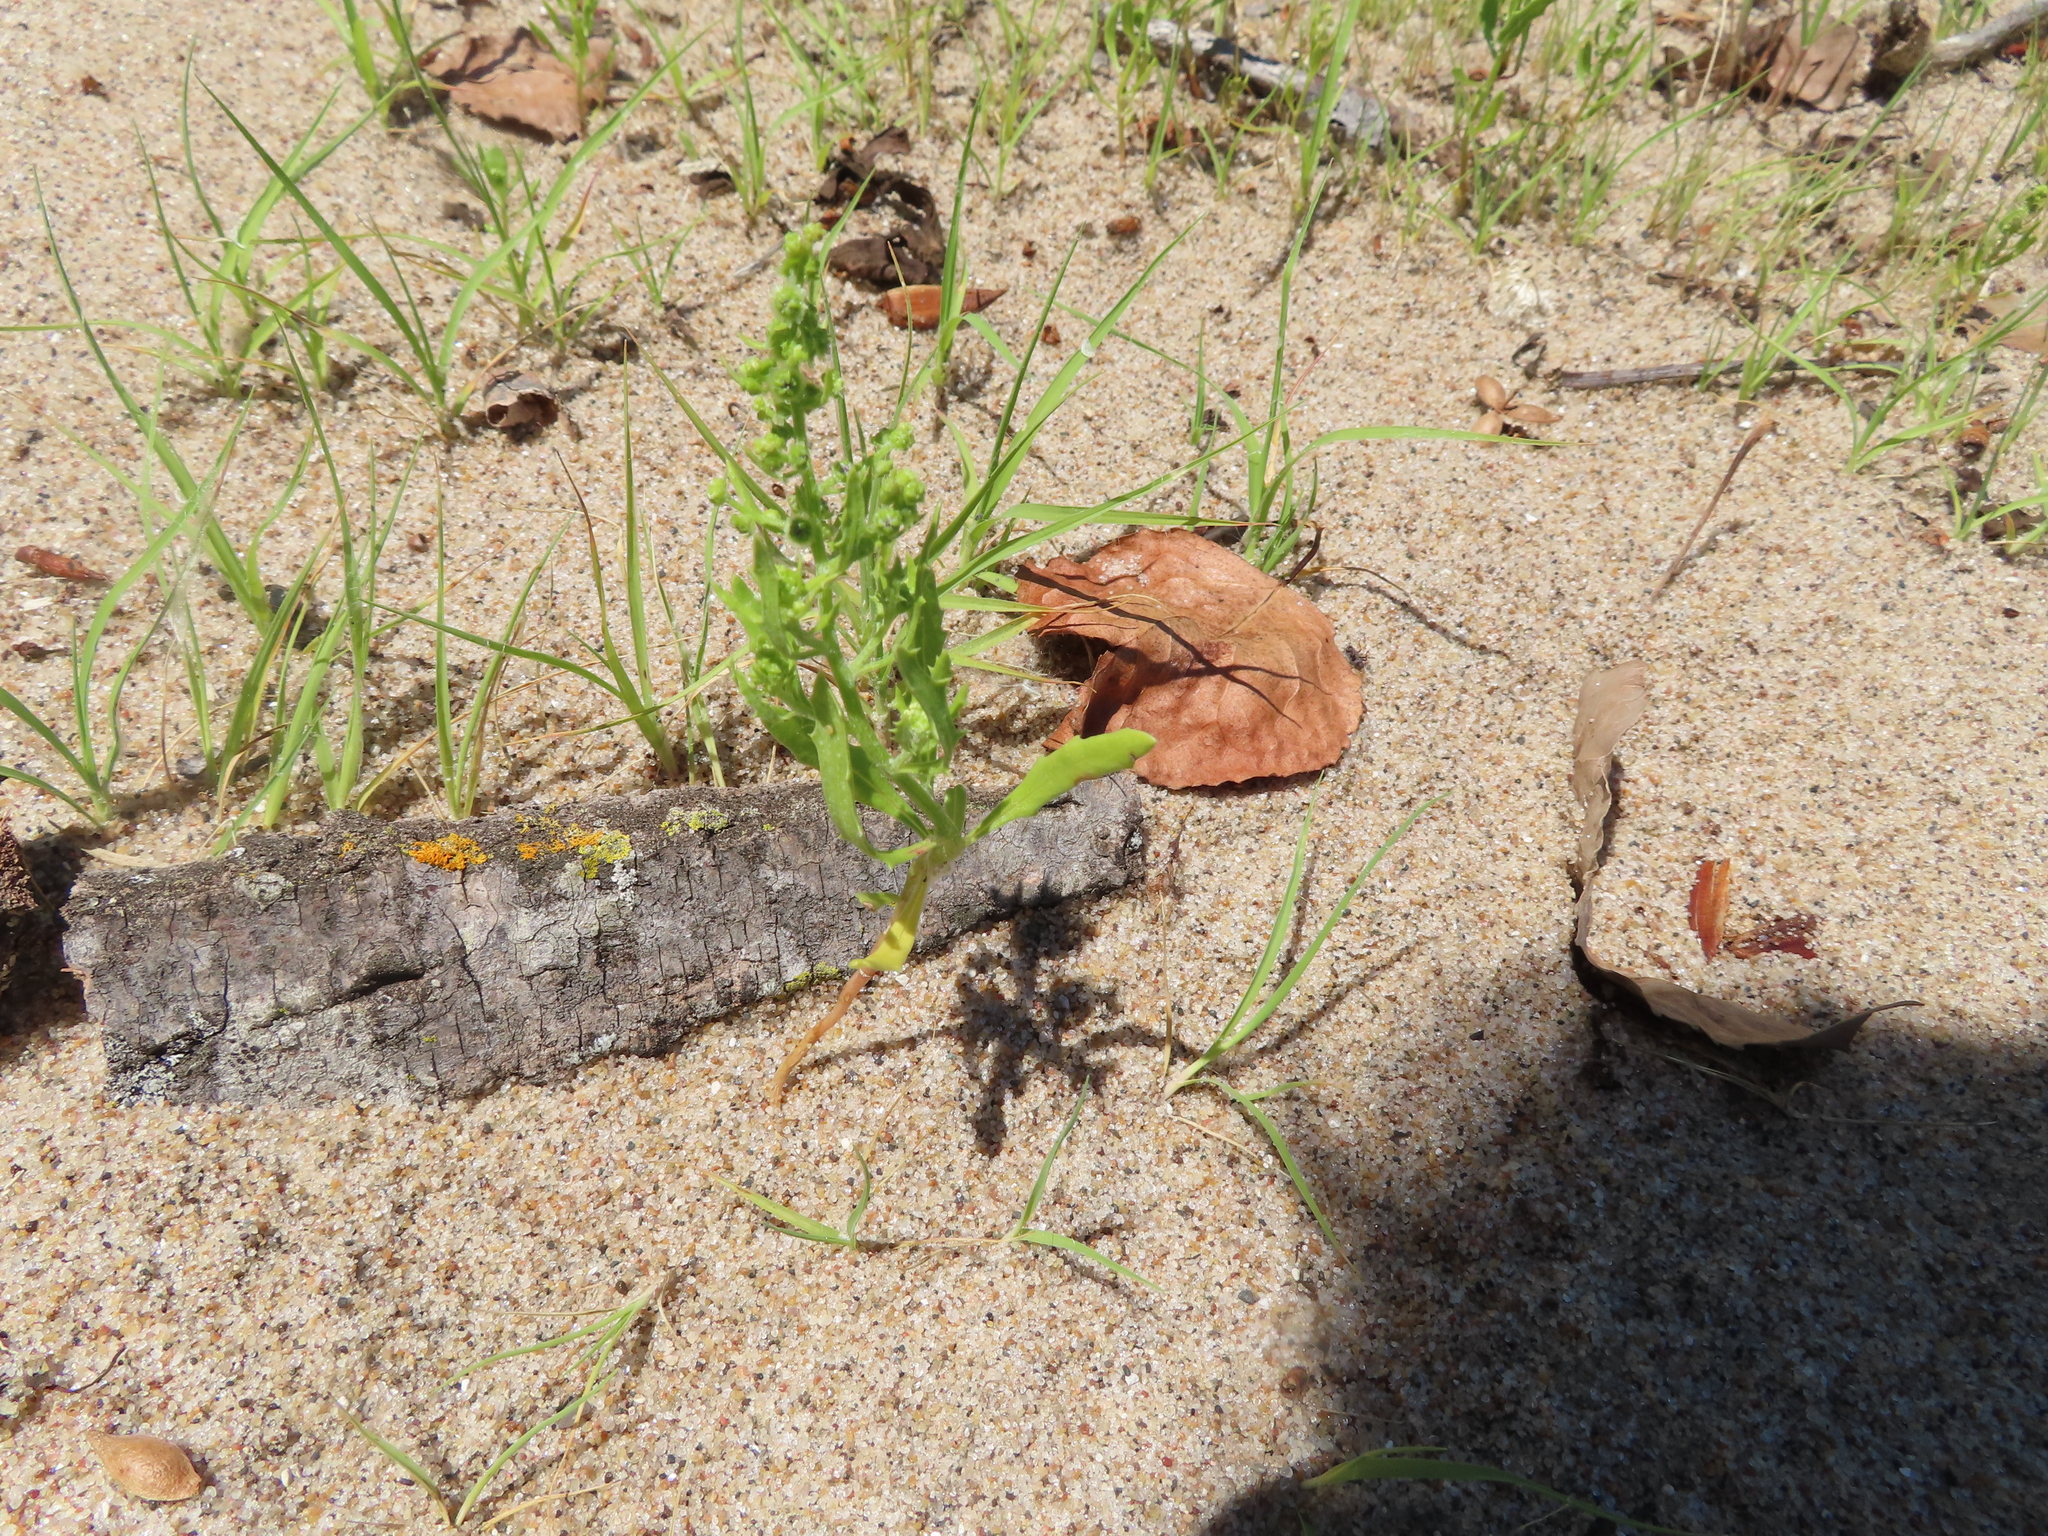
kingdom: Plantae
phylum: Tracheophyta
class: Magnoliopsida
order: Caryophyllales
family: Amaranthaceae
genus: Dysphania
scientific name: Dysphania atriplicifolia
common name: Plains tumbleweed
